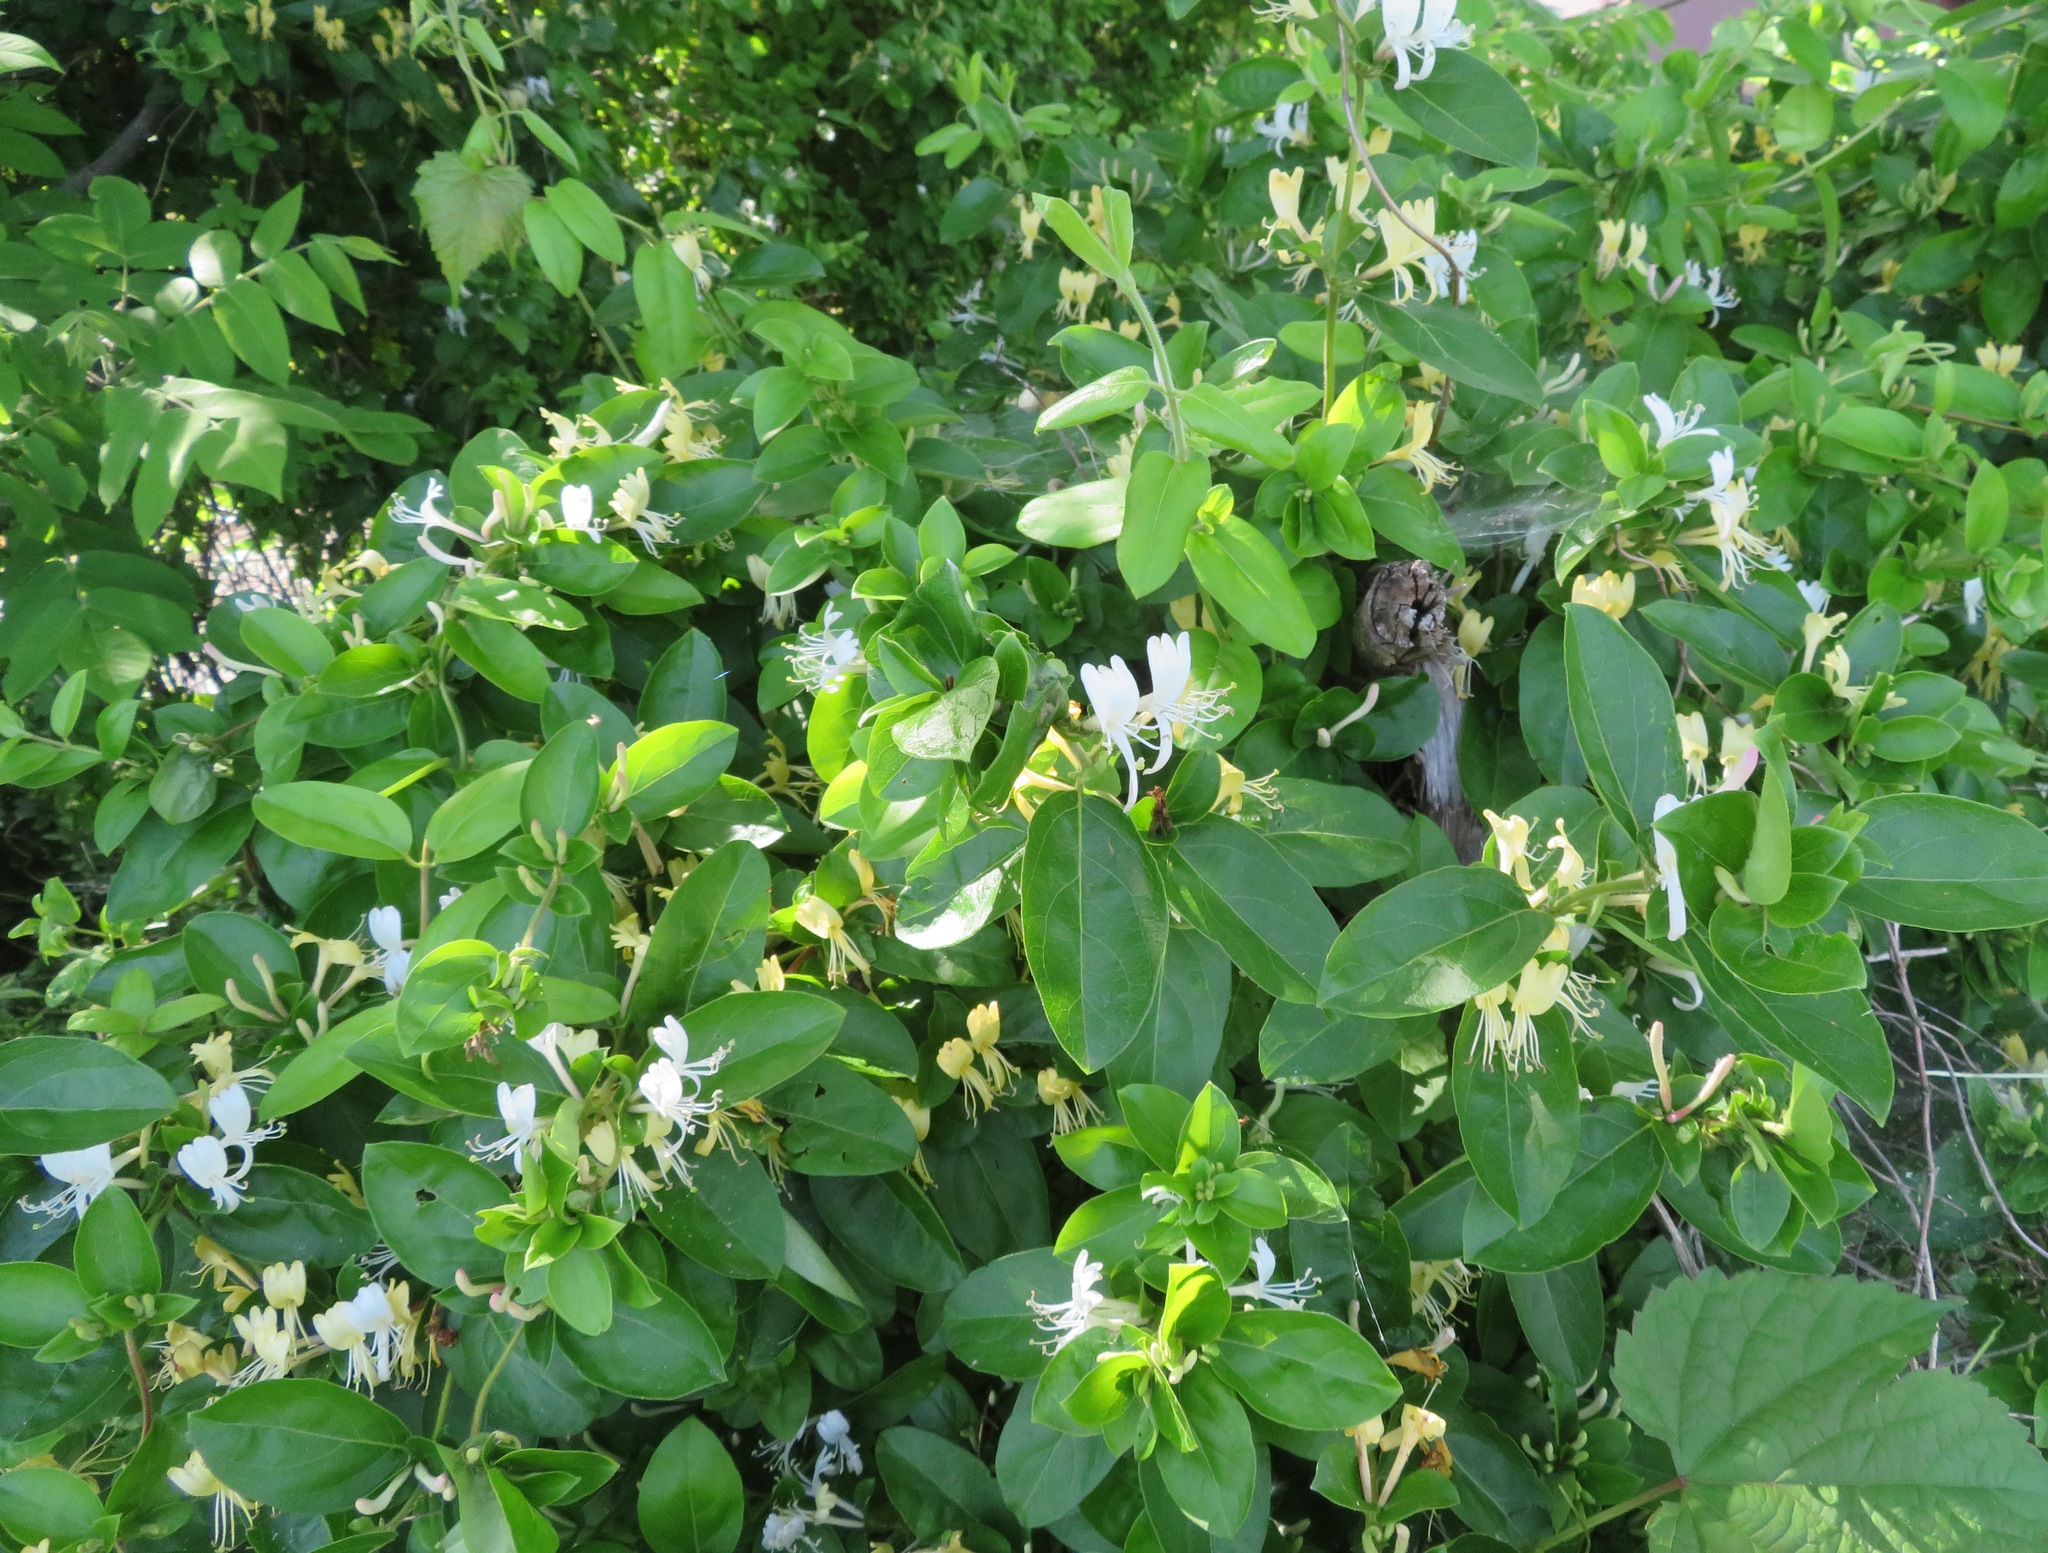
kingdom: Plantae
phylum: Tracheophyta
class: Magnoliopsida
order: Dipsacales
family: Caprifoliaceae
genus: Lonicera
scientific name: Lonicera japonica
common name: Japanese honeysuckle
